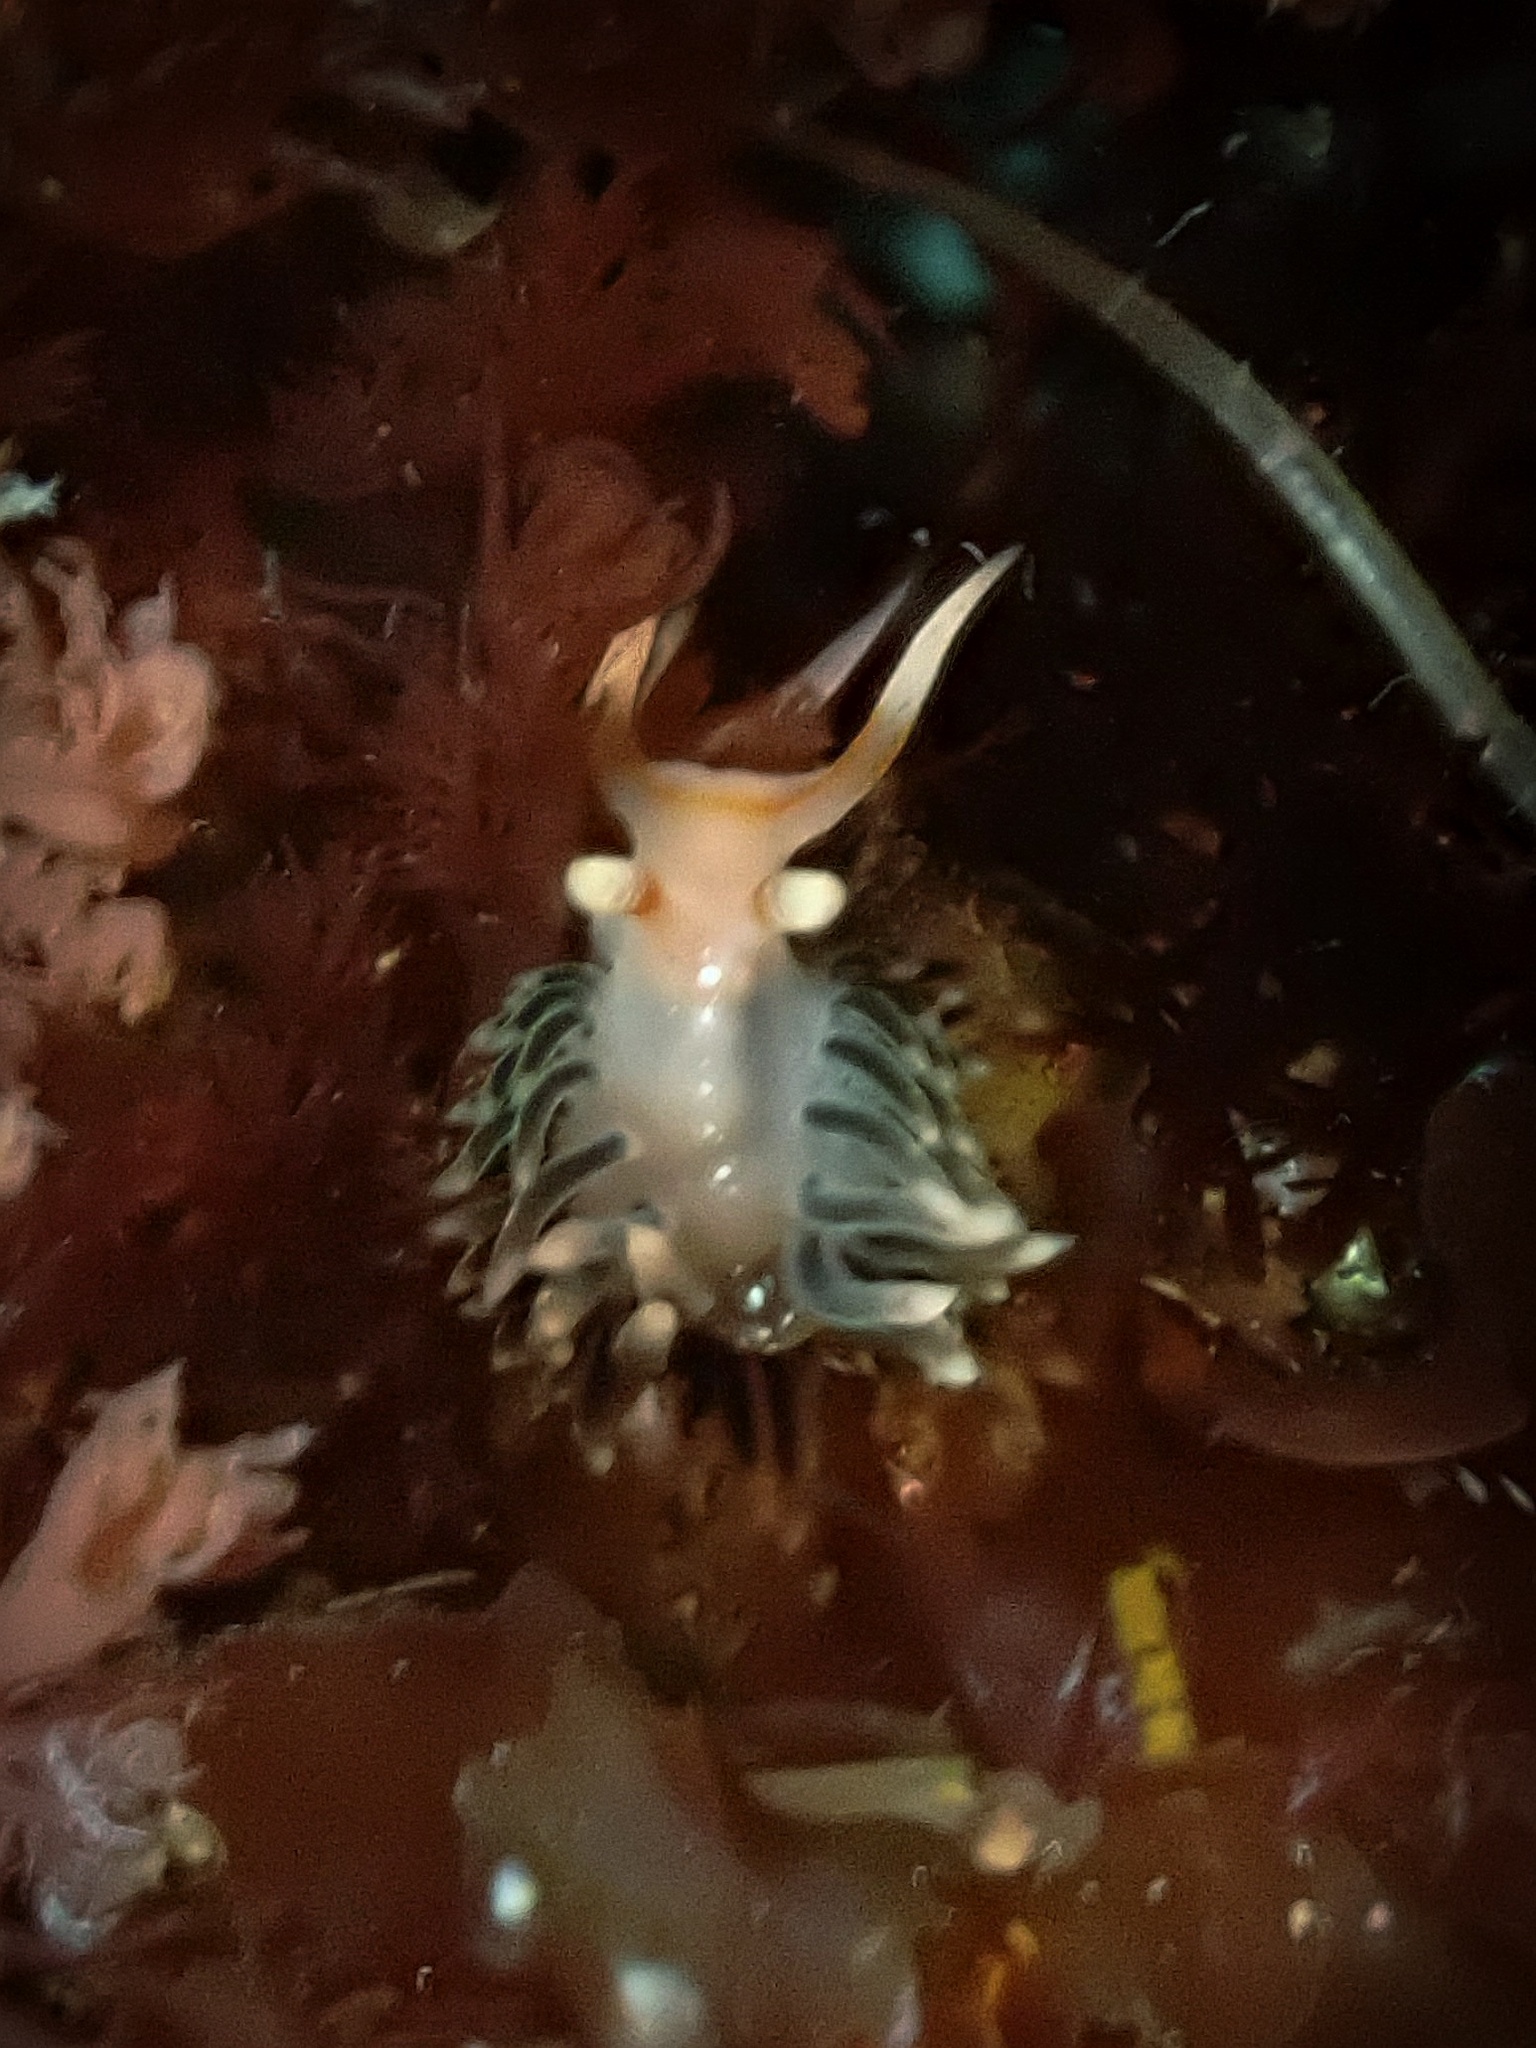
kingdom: Animalia
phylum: Mollusca
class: Gastropoda
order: Nudibranchia
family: Facelinidae
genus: Phidiana
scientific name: Phidiana hiltoni
